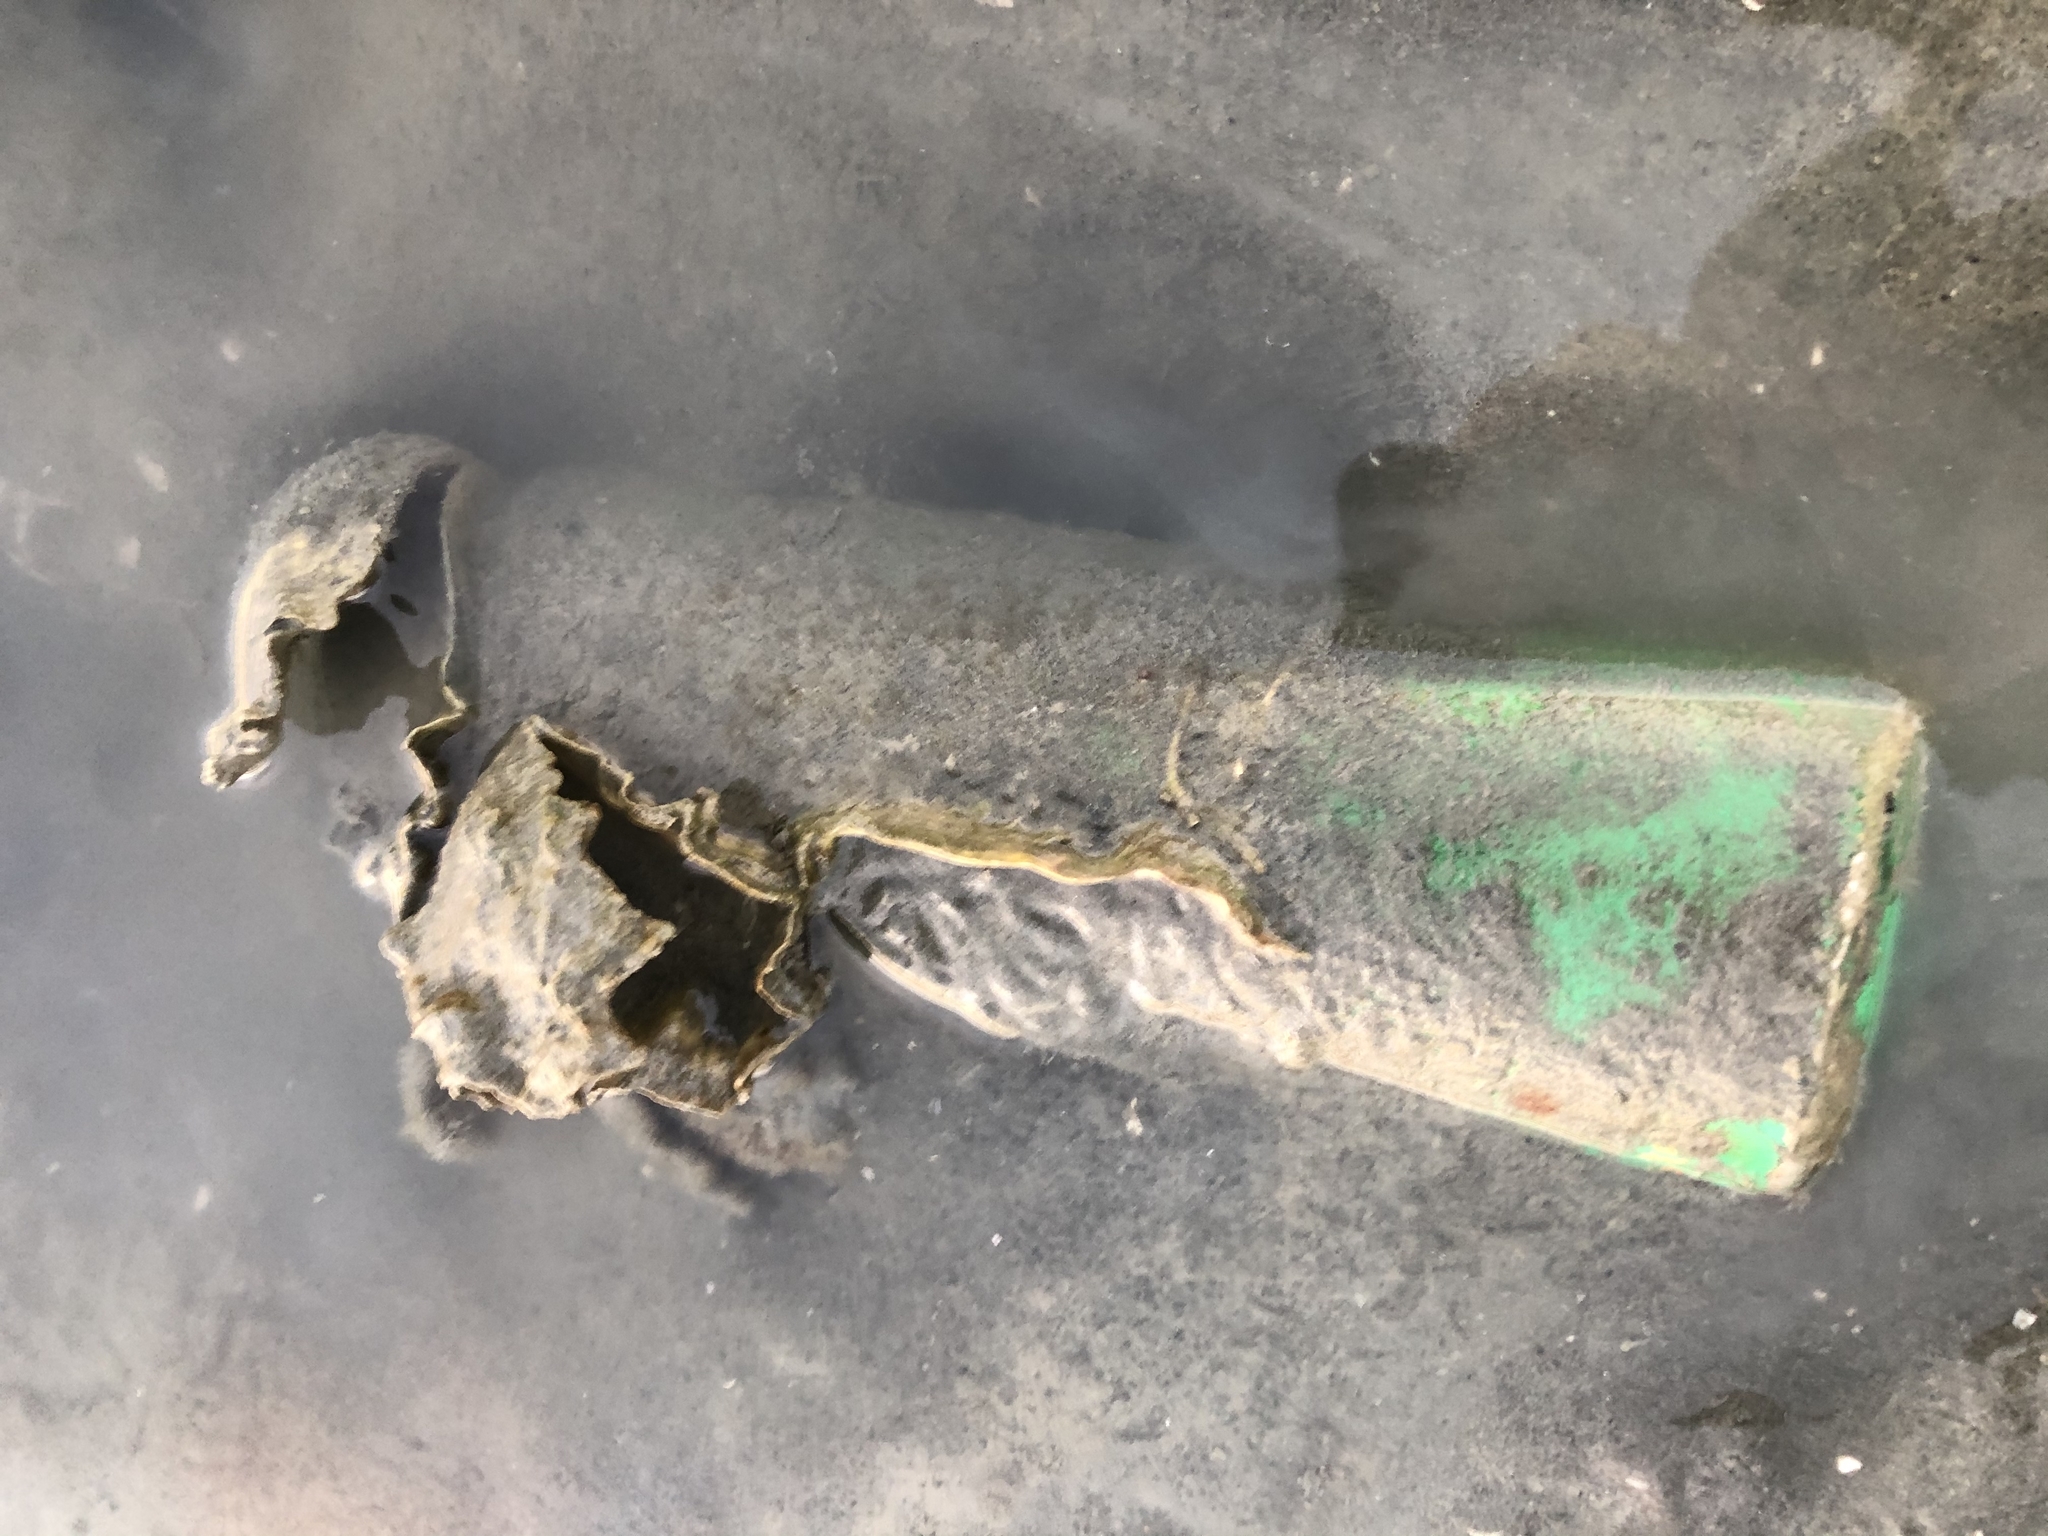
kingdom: Animalia
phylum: Mollusca
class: Bivalvia
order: Ostreida
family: Ostreidae
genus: Magallana
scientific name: Magallana gigas
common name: Pacific oyster
